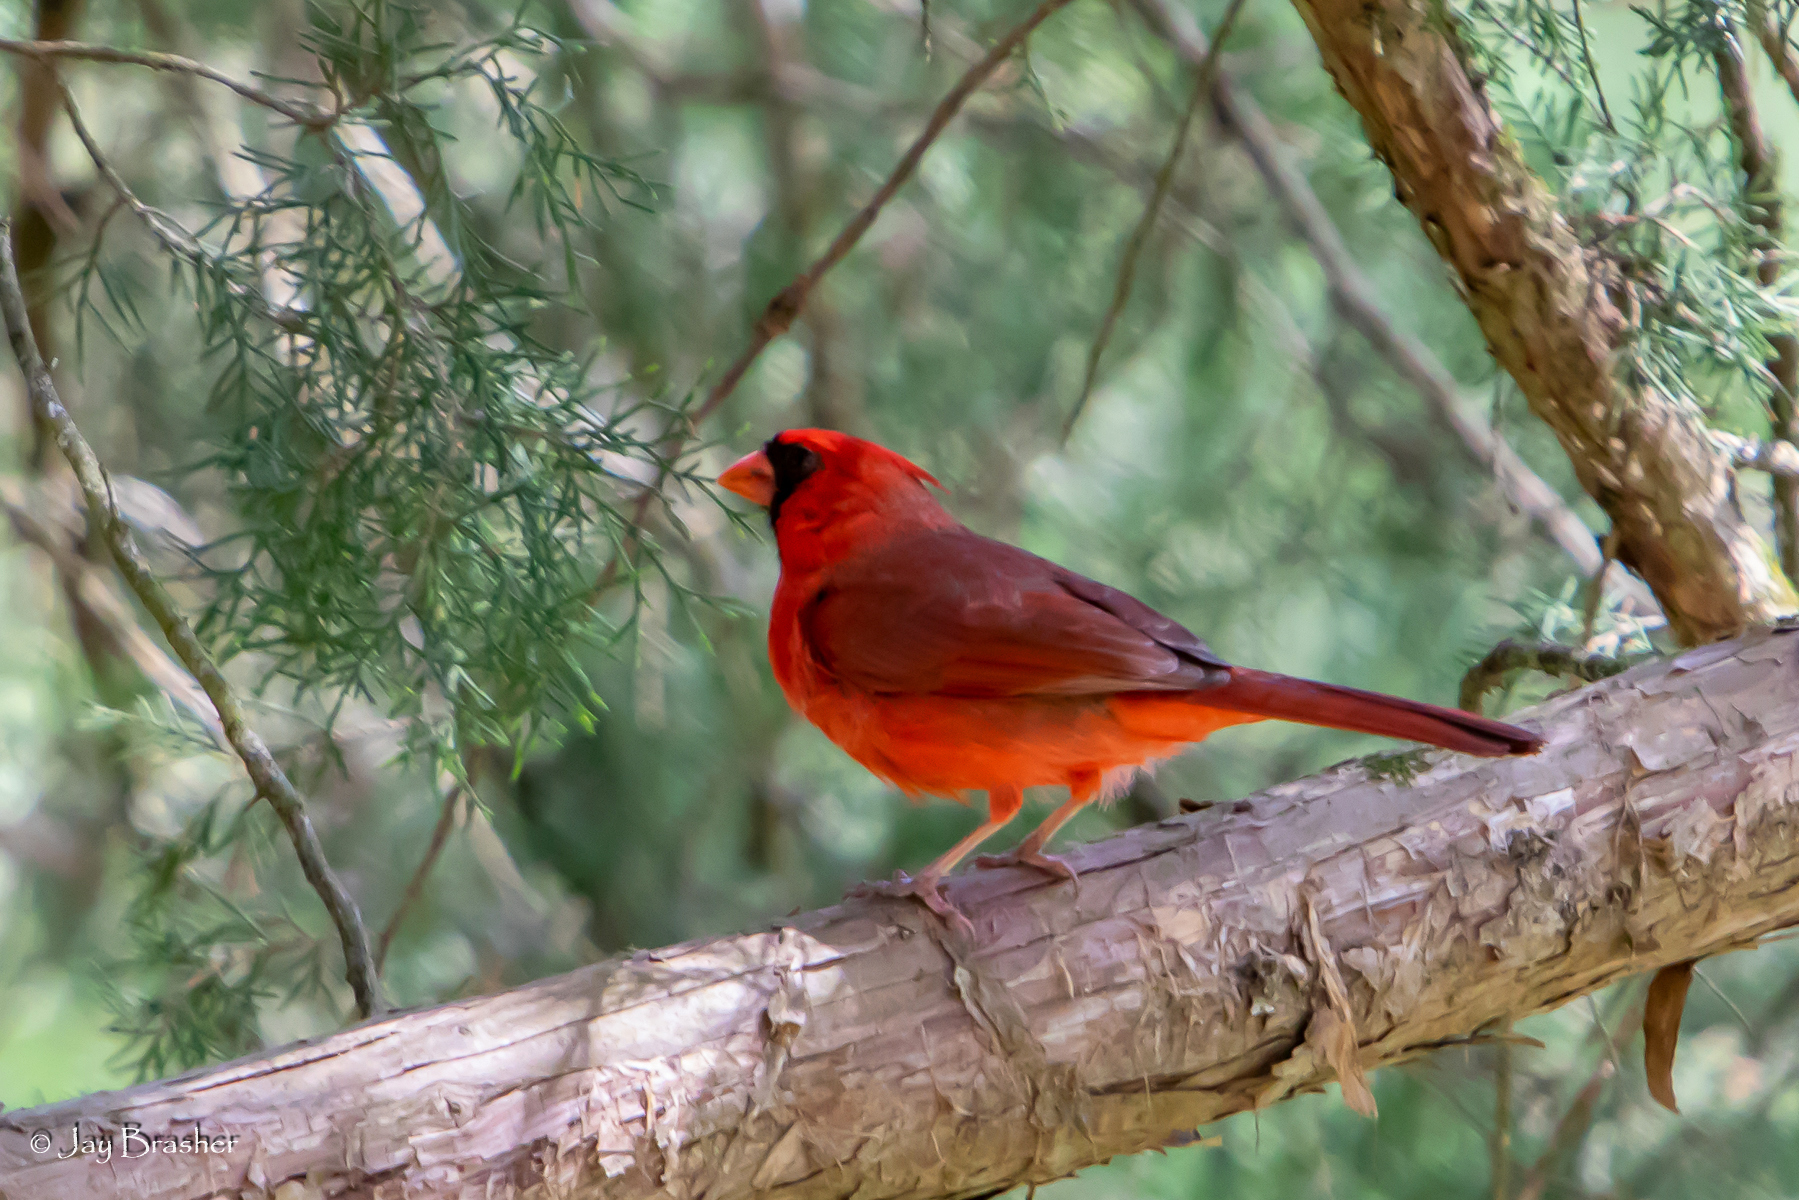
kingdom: Animalia
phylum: Chordata
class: Aves
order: Passeriformes
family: Cardinalidae
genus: Cardinalis
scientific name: Cardinalis cardinalis
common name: Northern cardinal
